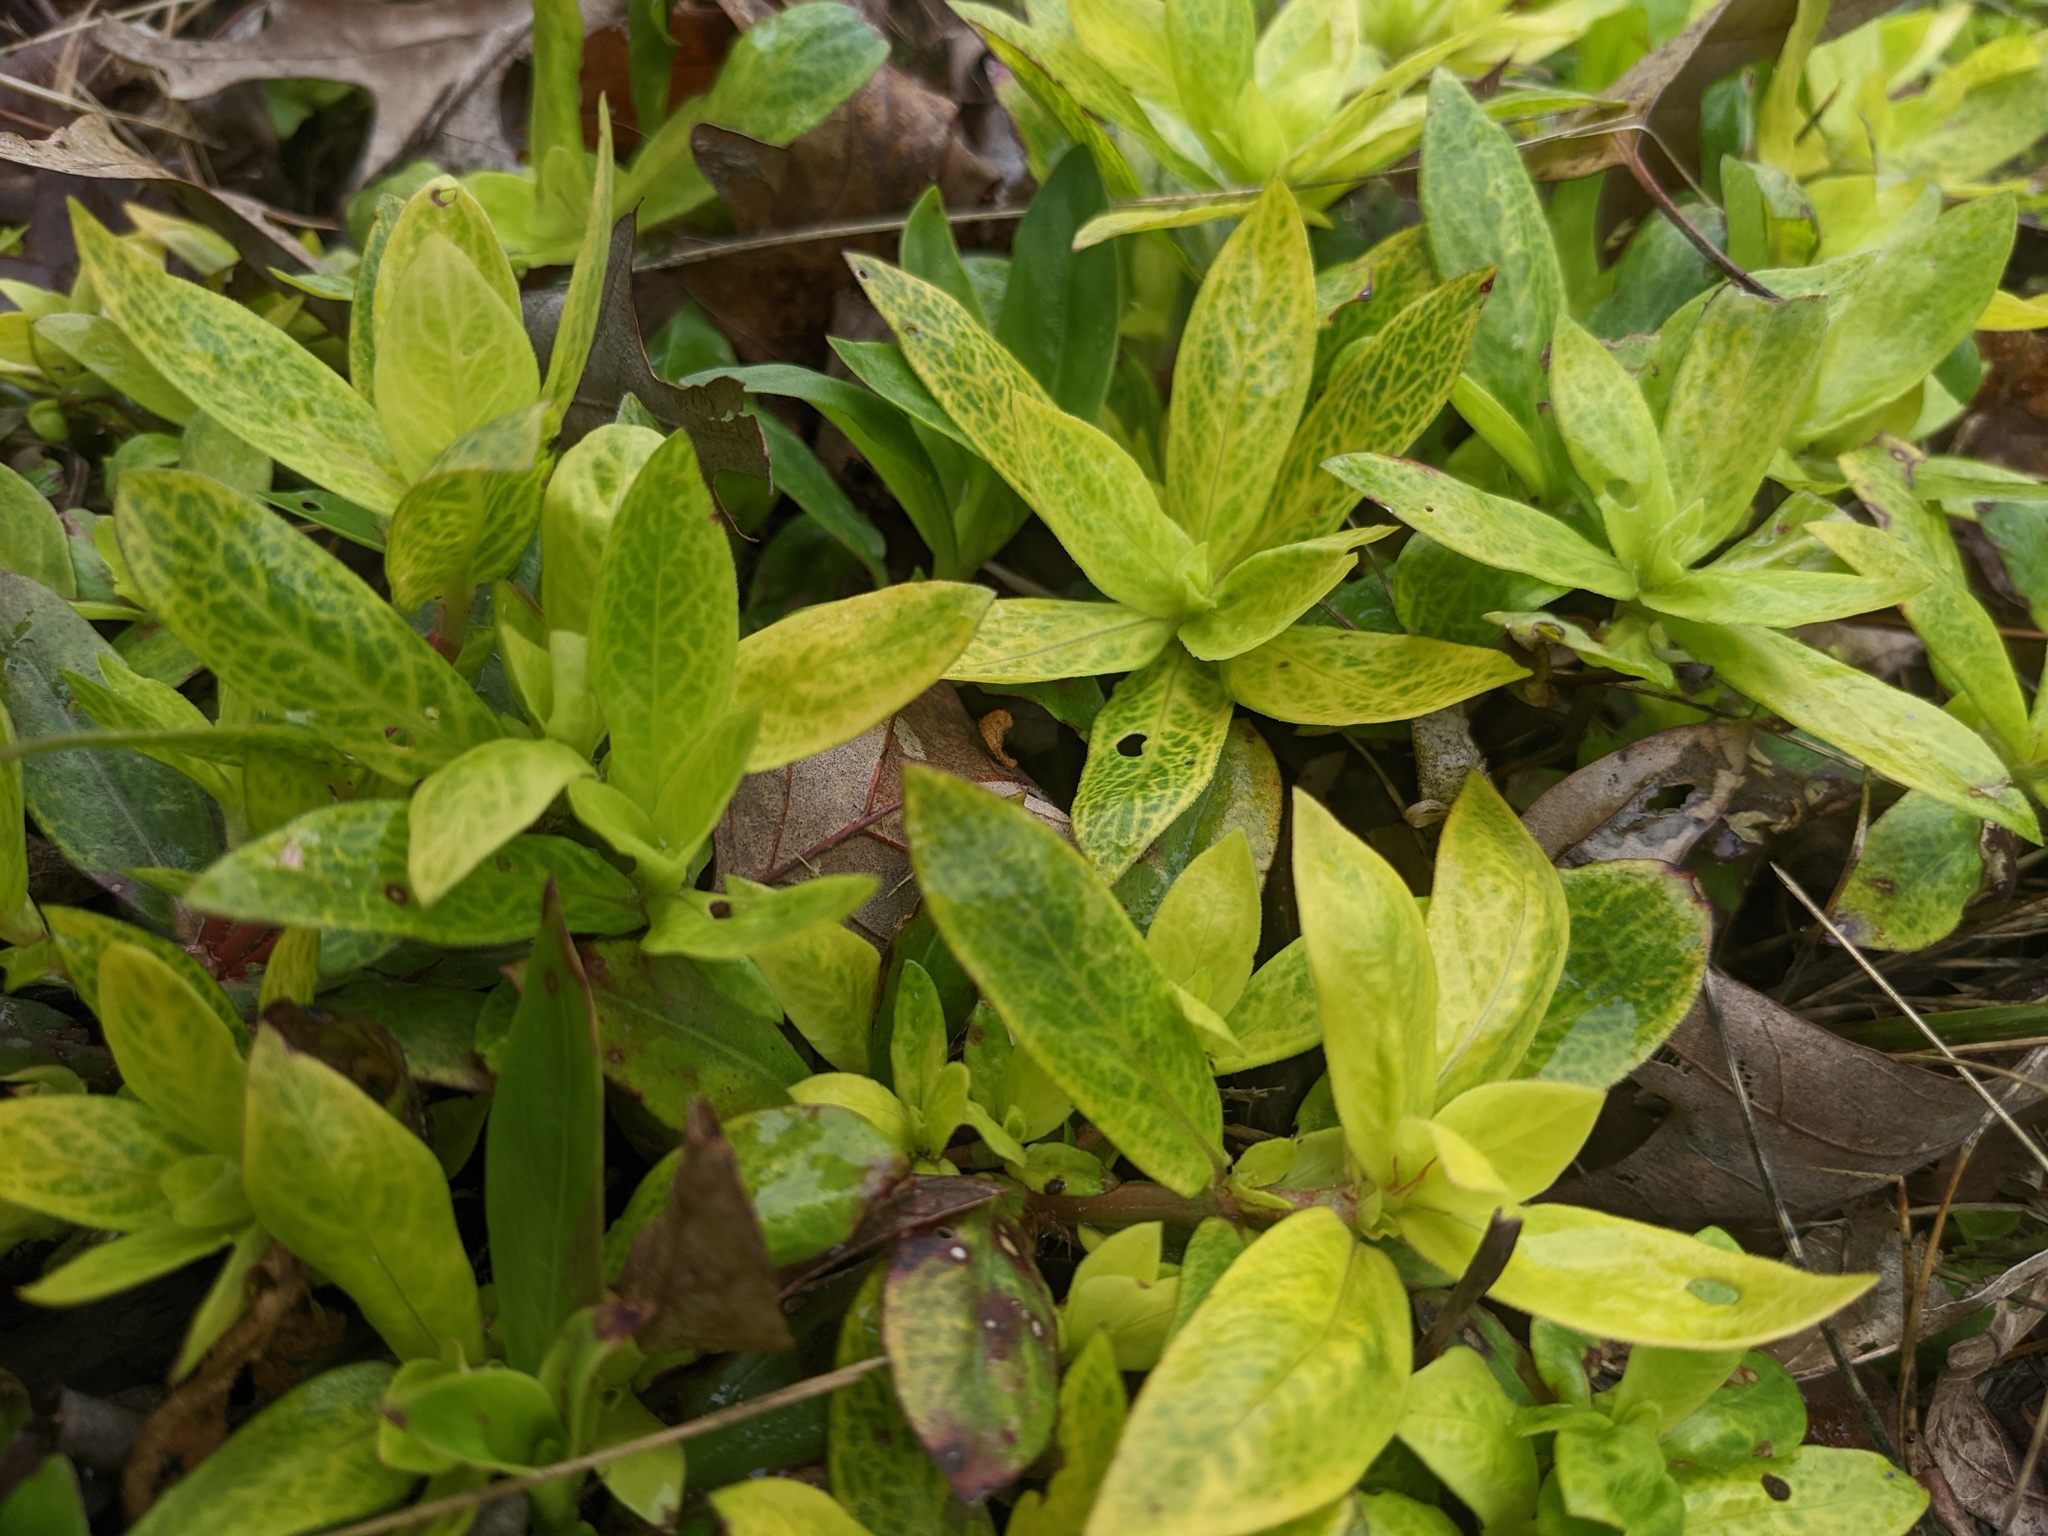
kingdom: Viruses
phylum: Kitrinoviricota
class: Alsuviricetes
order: Martellivirales
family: Closteroviridae
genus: Crinivirus
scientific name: Crinivirus Diodia vein chlorosis virus
